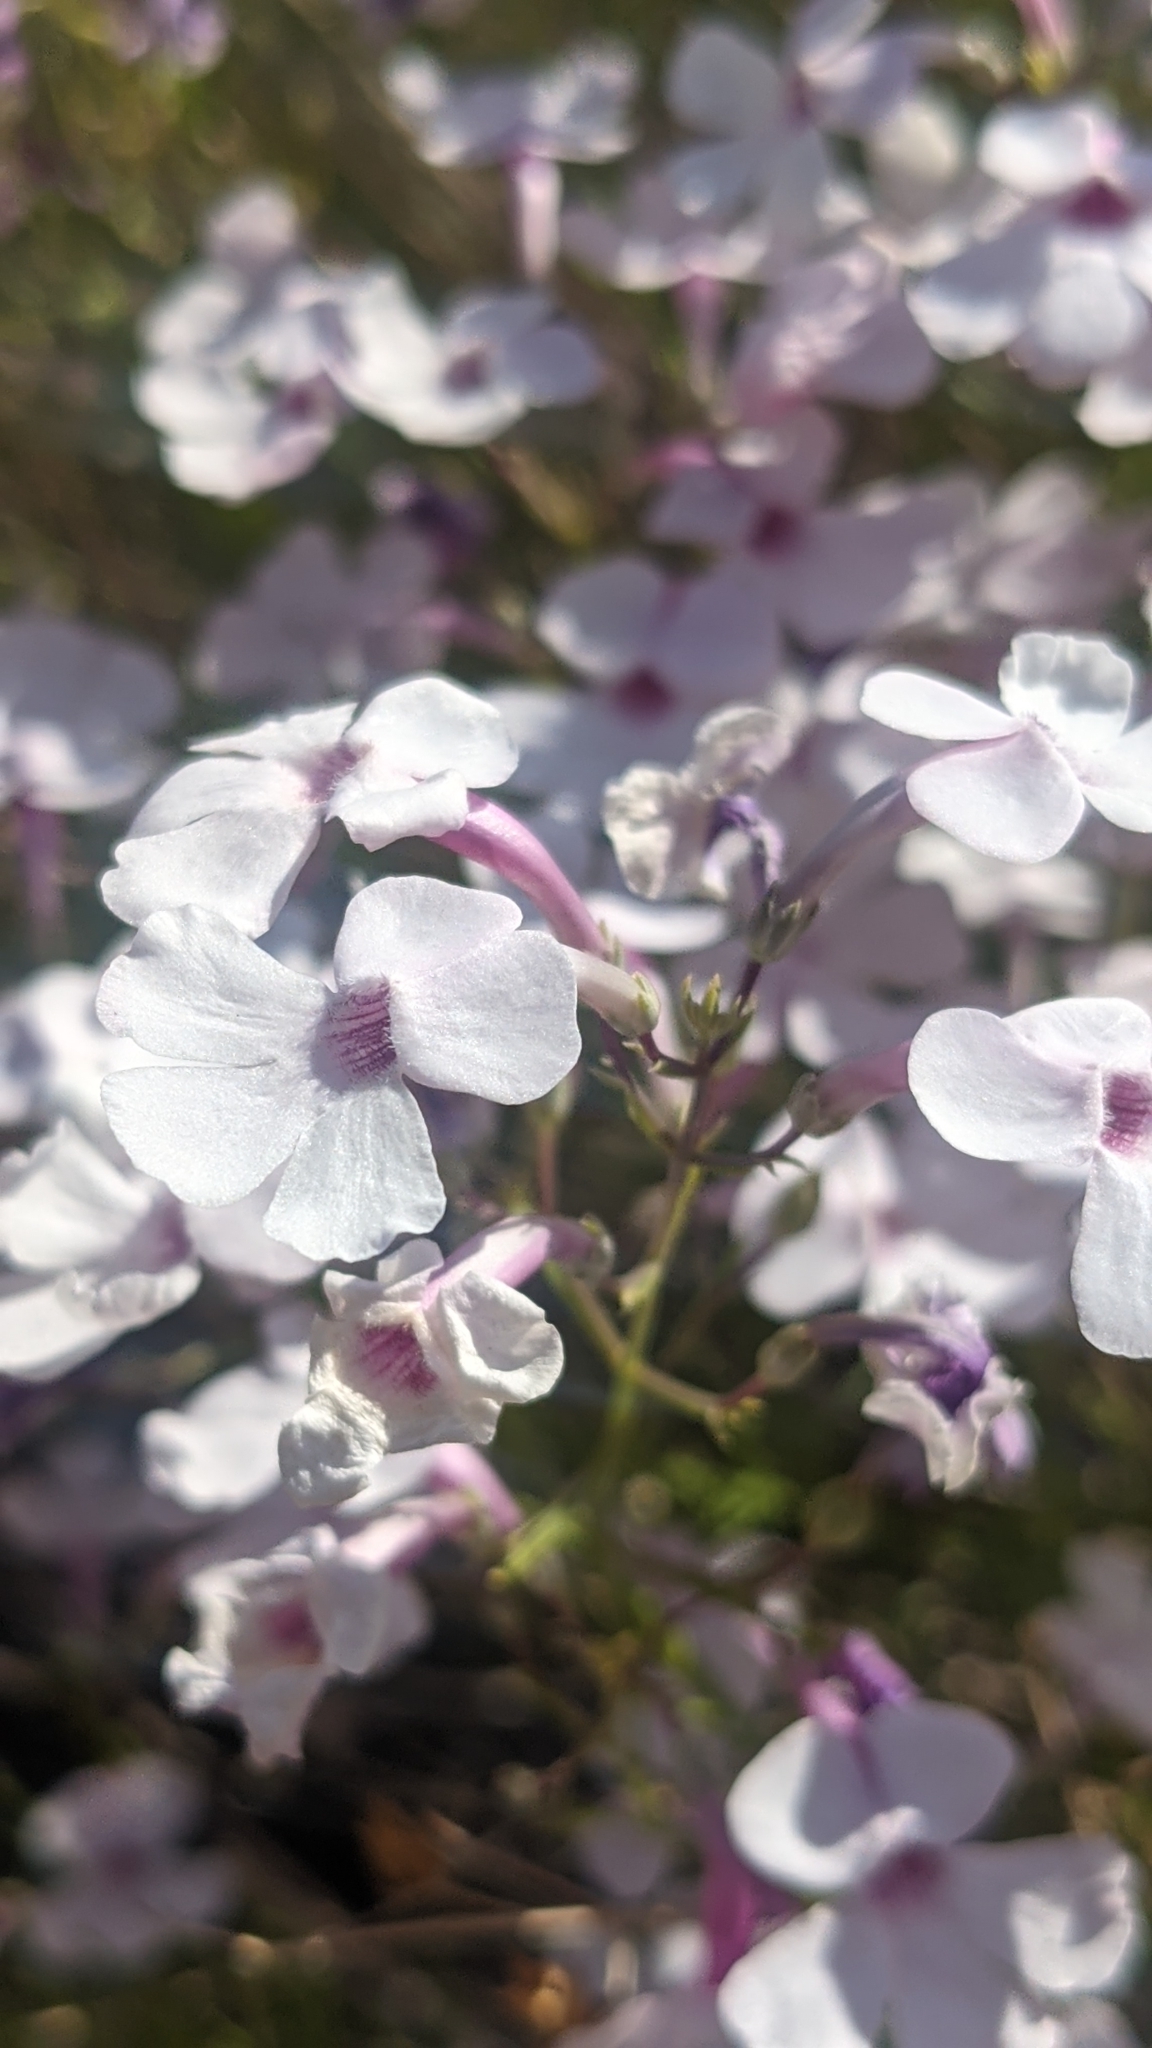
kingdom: Plantae
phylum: Tracheophyta
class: Magnoliopsida
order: Lamiales
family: Plantaginaceae
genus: Penstemon
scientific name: Penstemon ambiguus
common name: Bush penstemon
